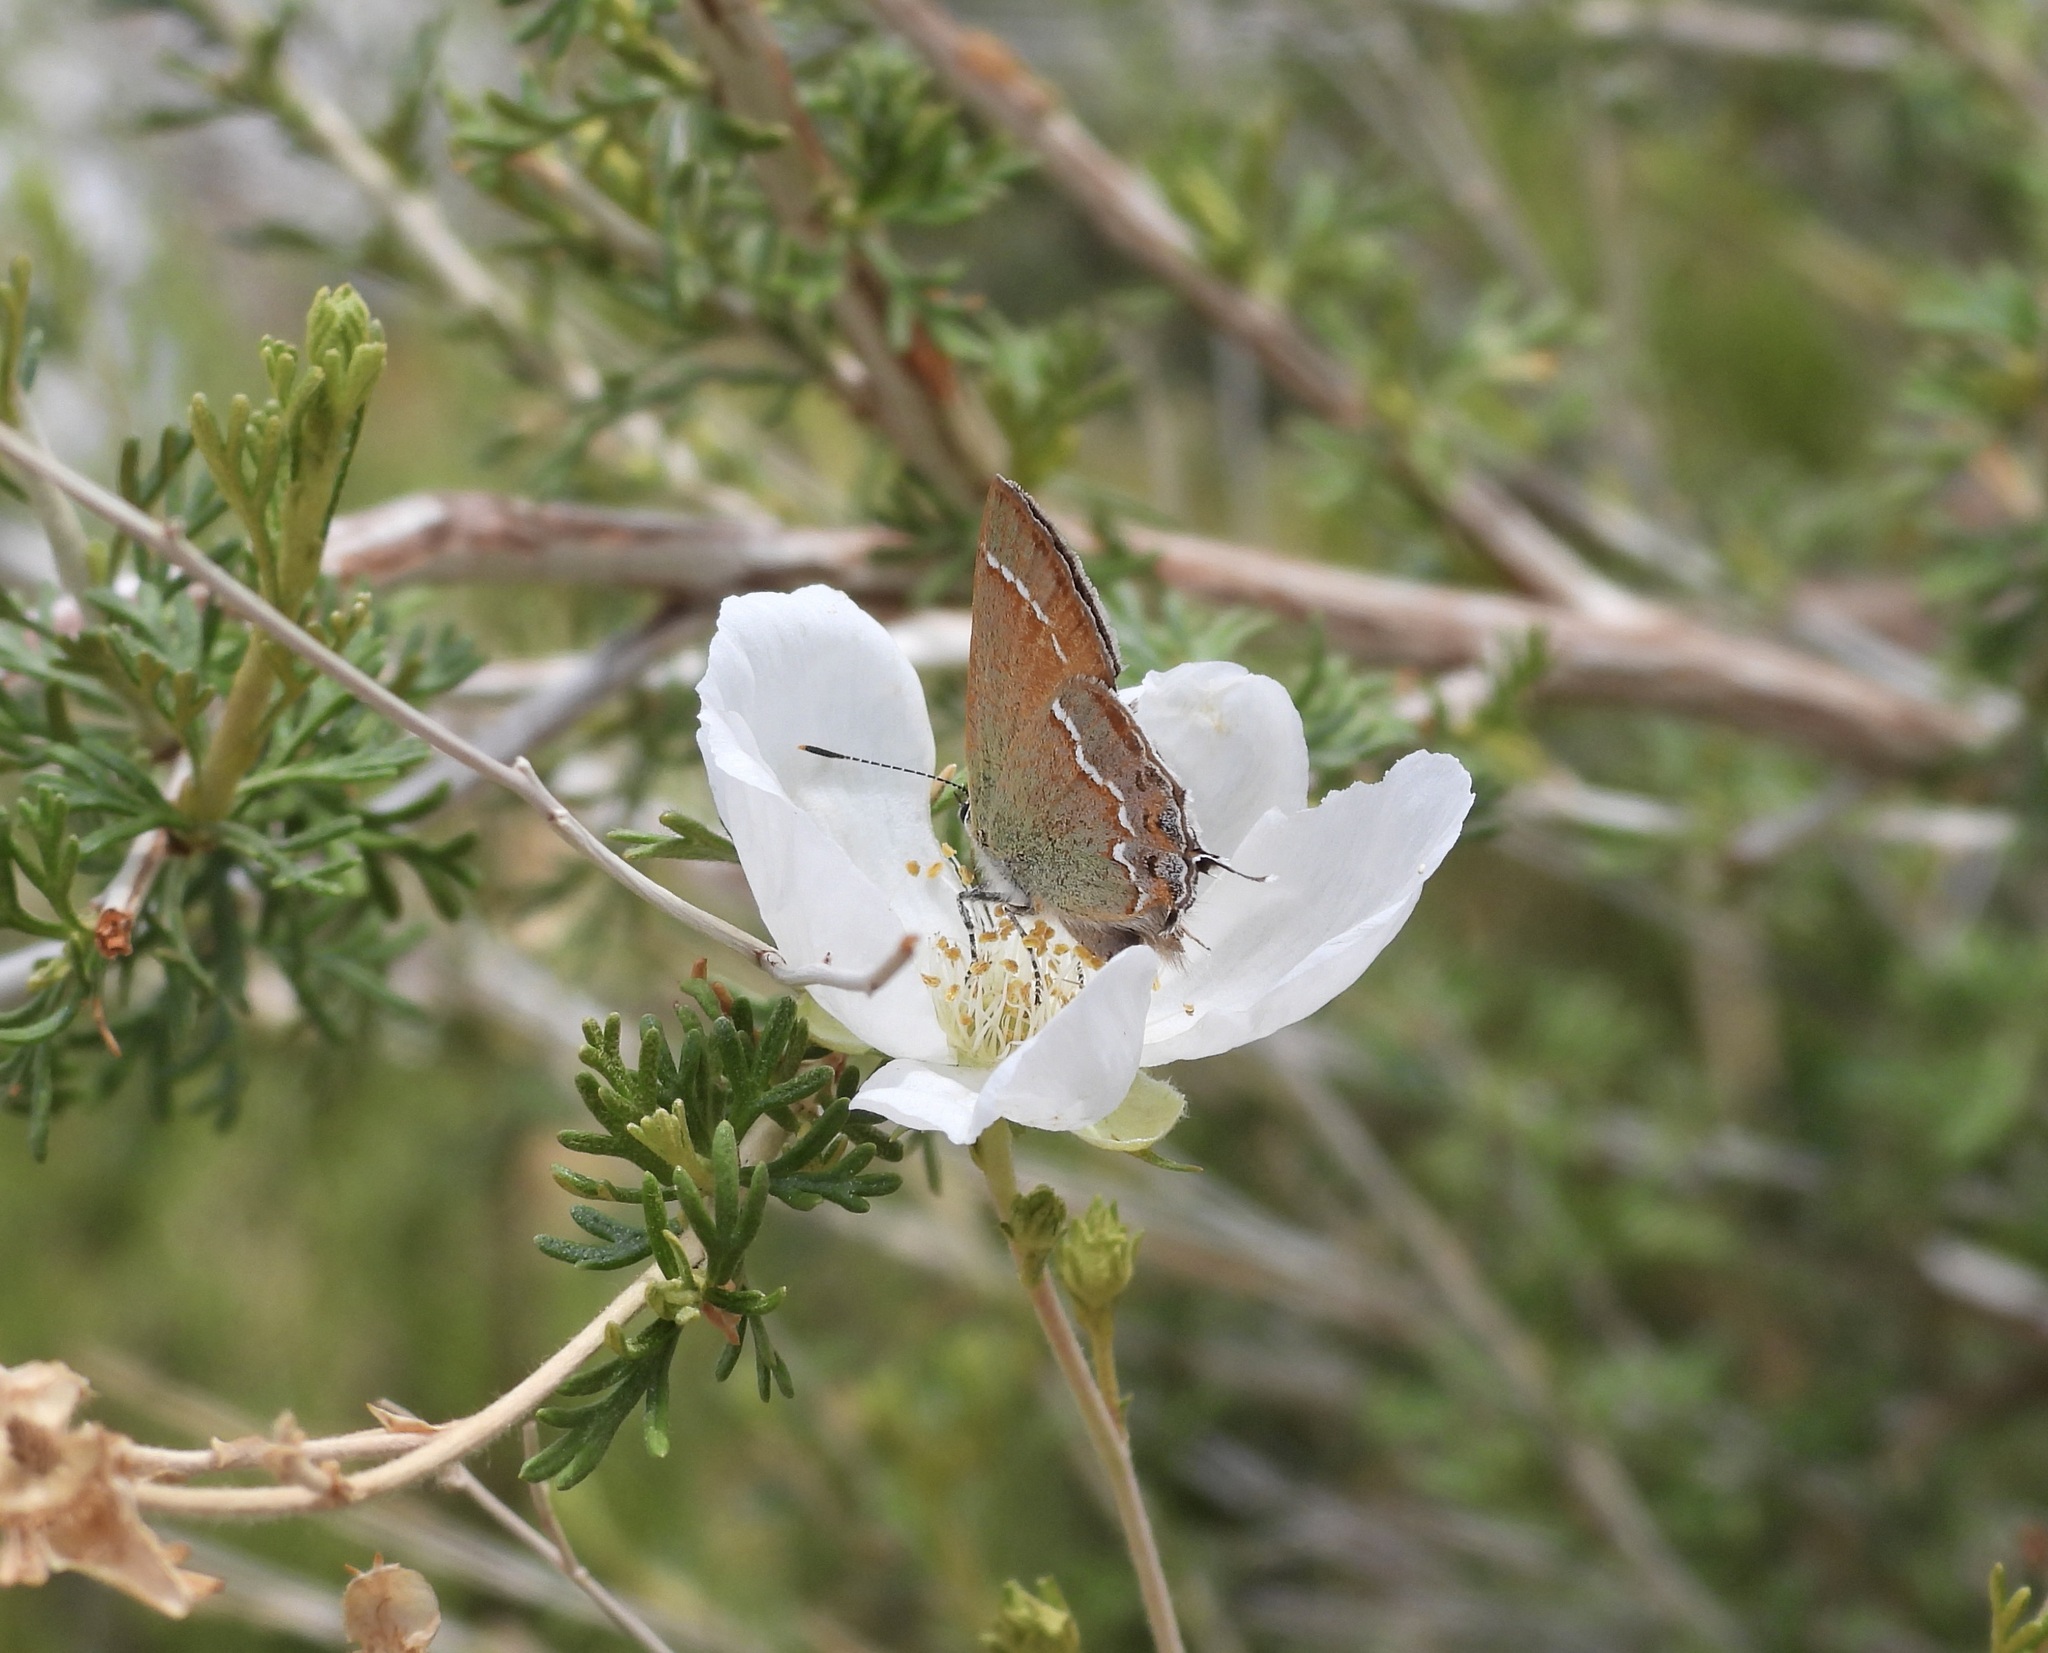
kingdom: Animalia
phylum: Arthropoda
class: Insecta
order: Lepidoptera
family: Lycaenidae
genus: Mitoura
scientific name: Mitoura gryneus
